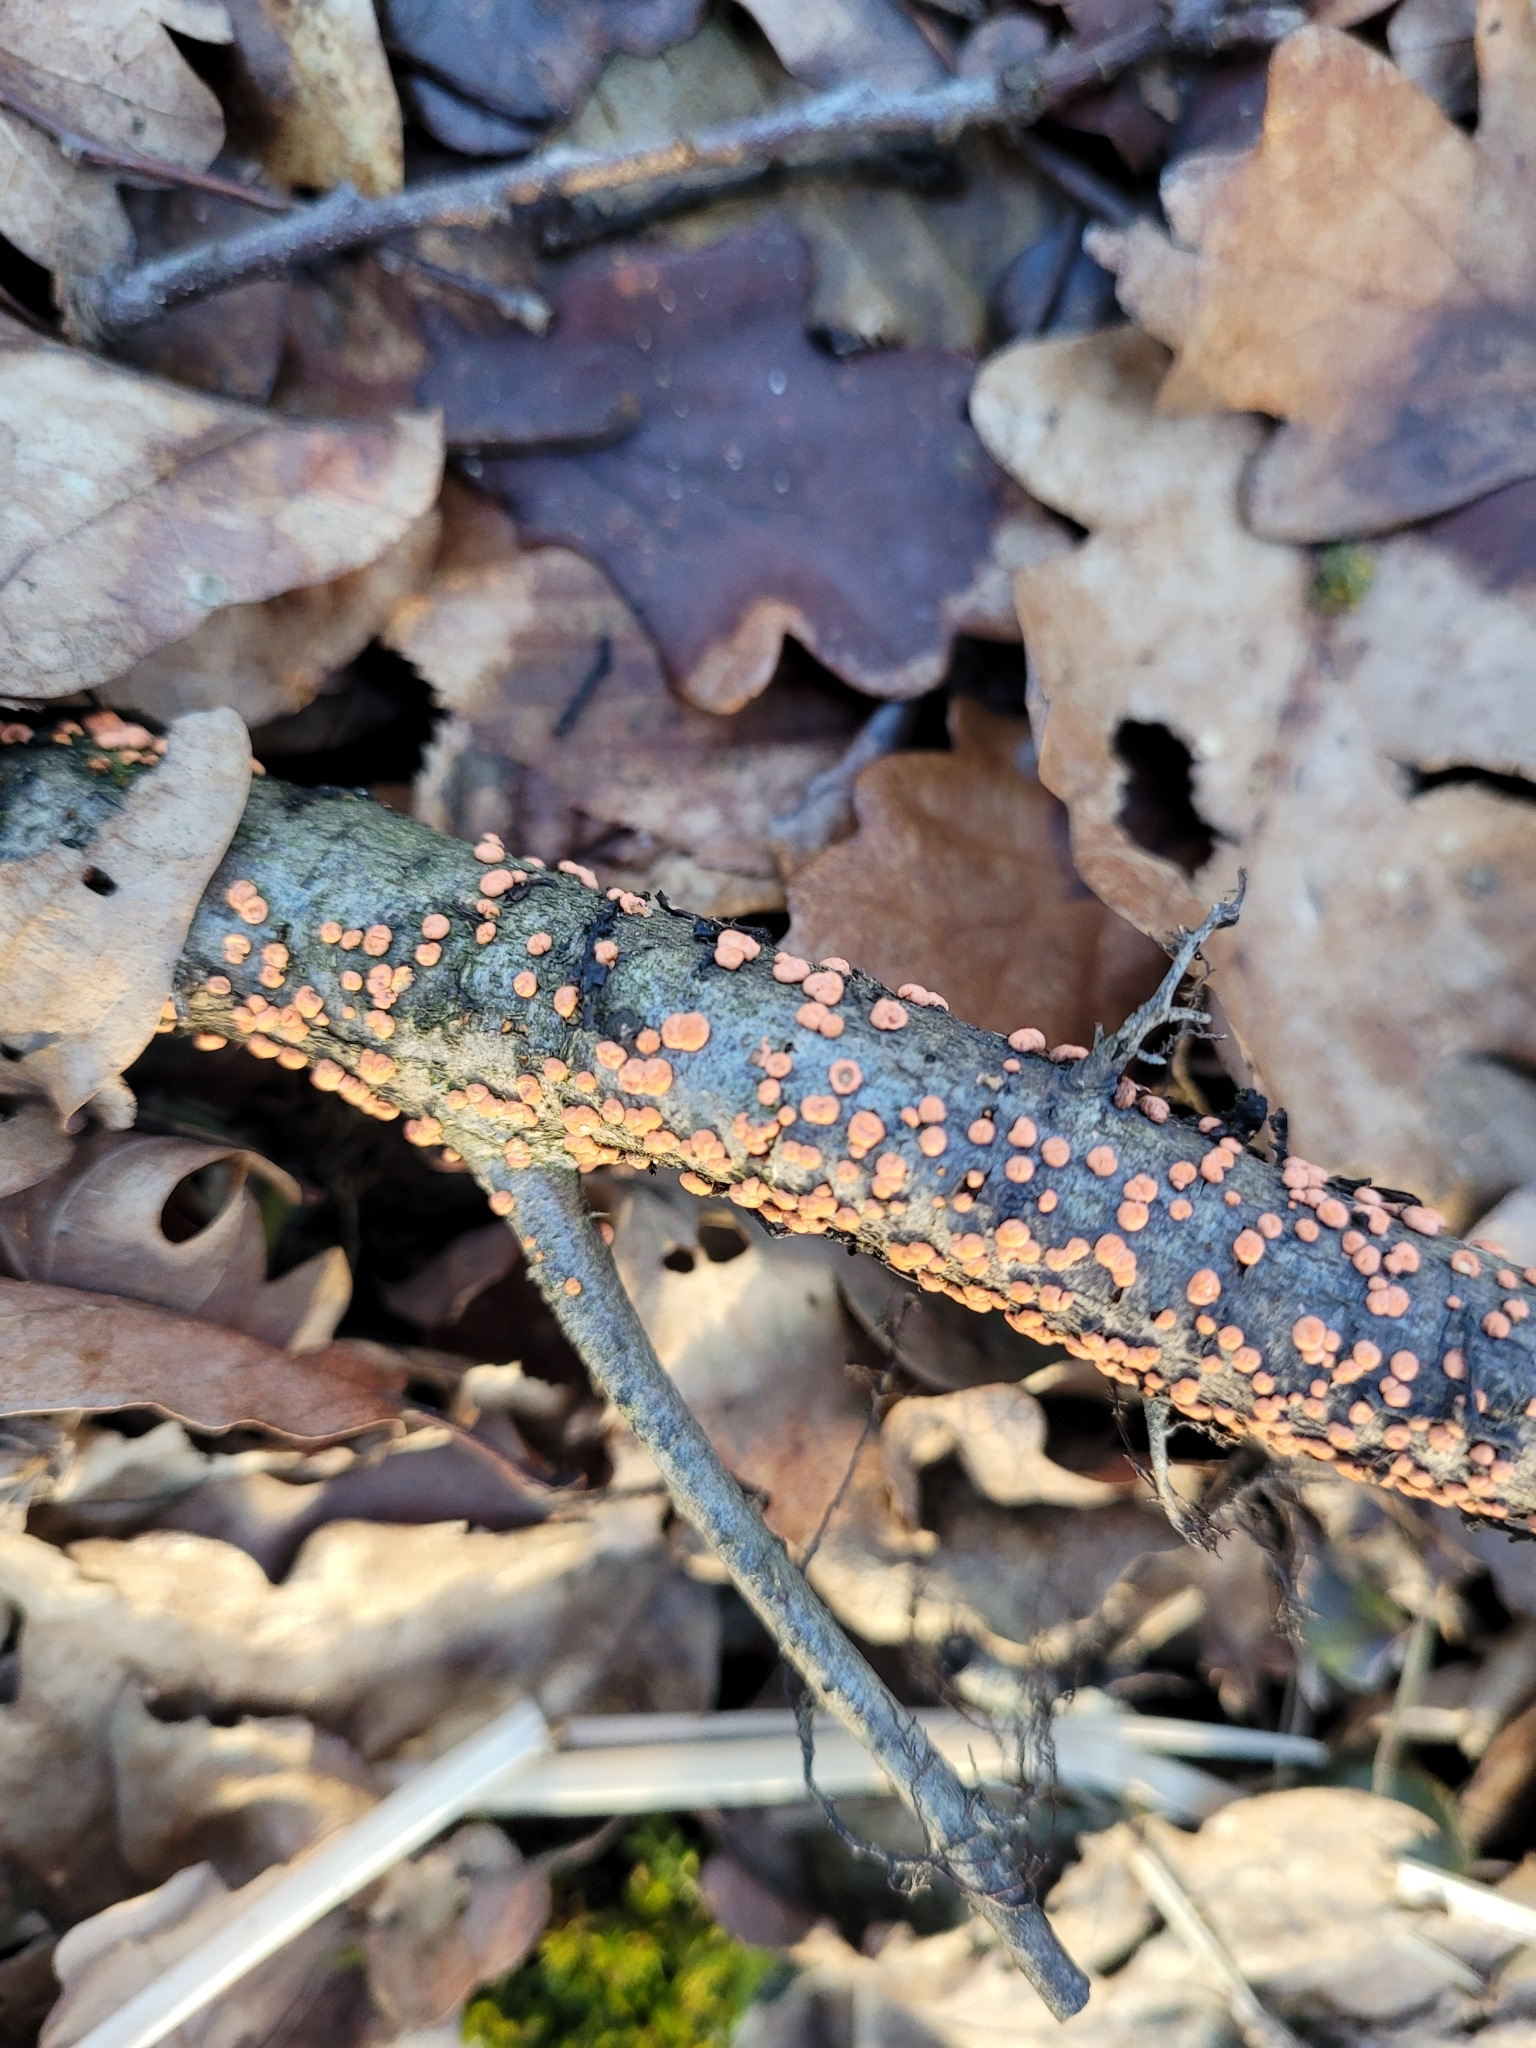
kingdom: Fungi
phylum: Ascomycota
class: Sordariomycetes
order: Hypocreales
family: Nectriaceae
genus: Nectria
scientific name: Nectria cinnabarina
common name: Coral spot
